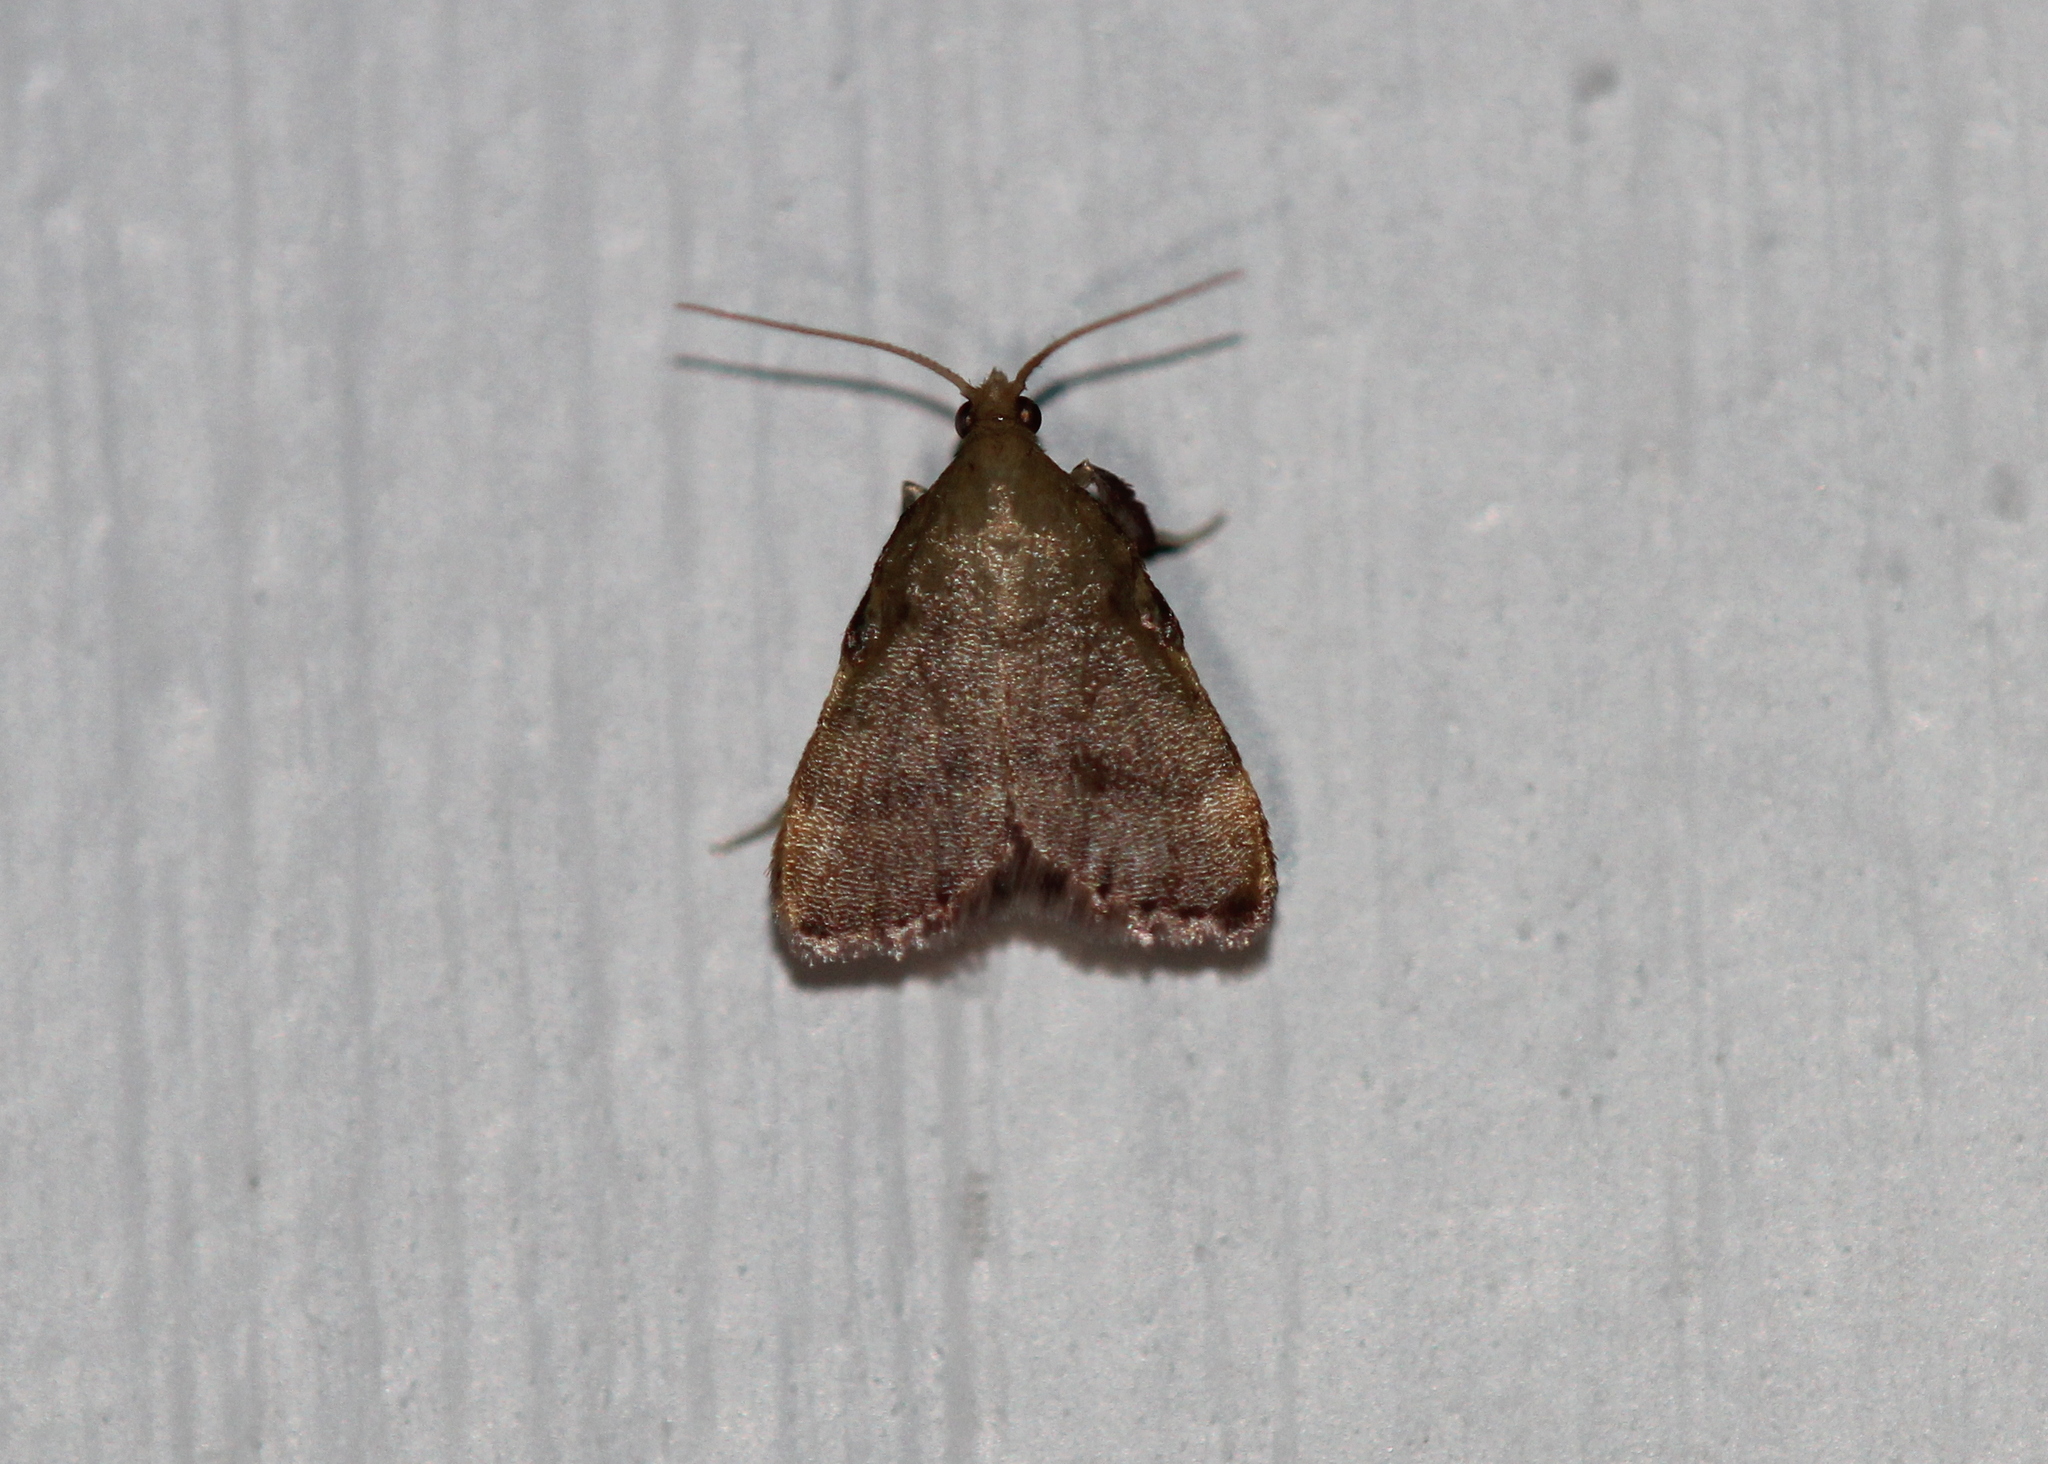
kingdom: Animalia
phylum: Arthropoda
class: Insecta
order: Lepidoptera
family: Pyralidae
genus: Condylolomia
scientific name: Condylolomia participialis
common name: Drab condylolomia moth
